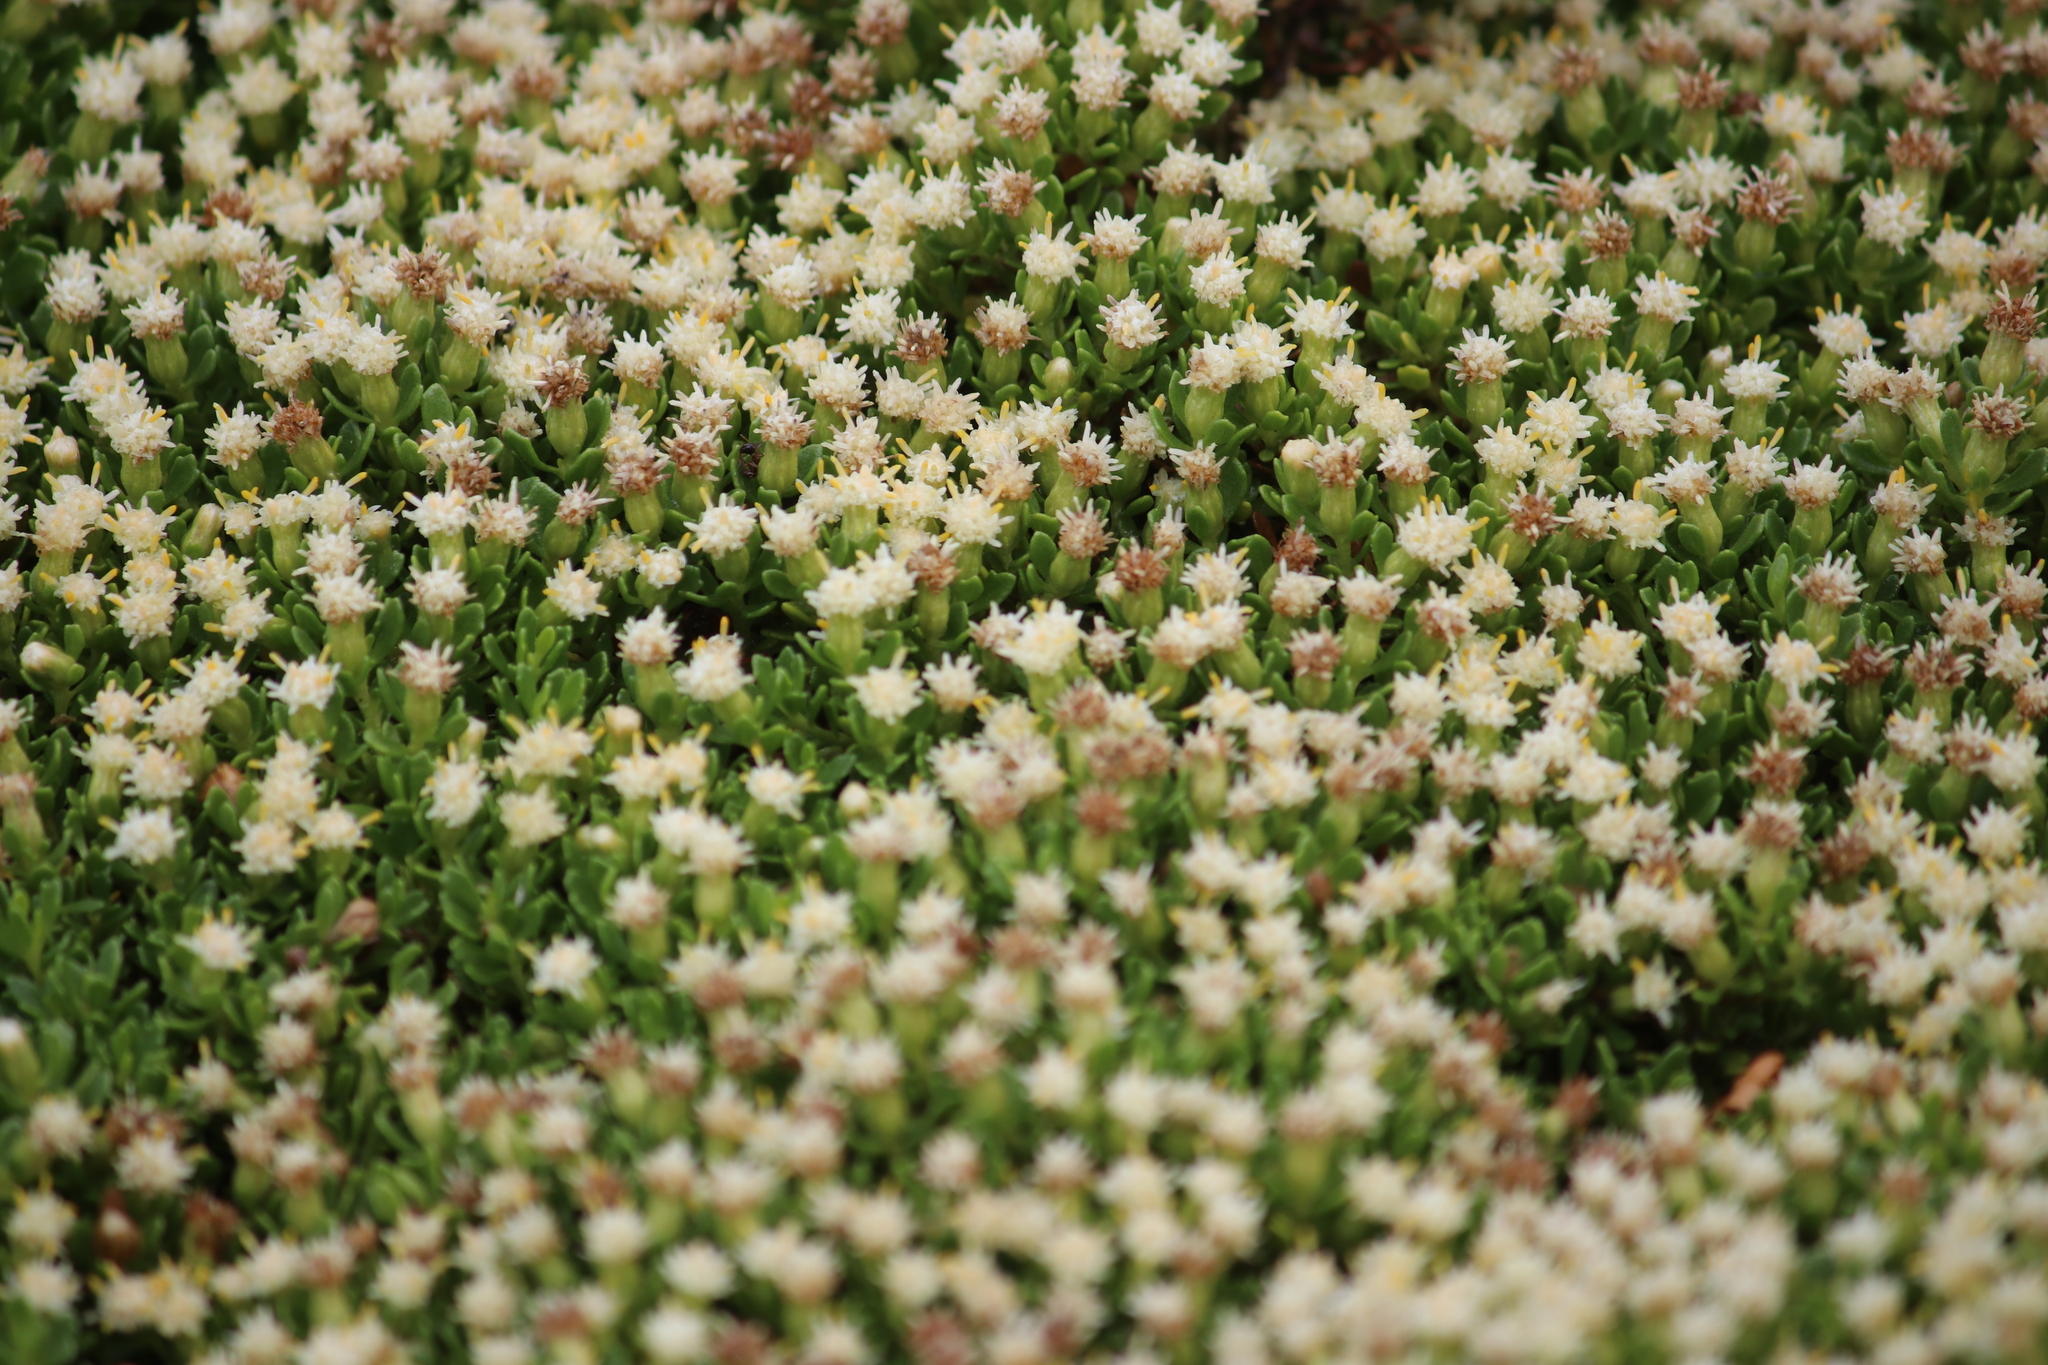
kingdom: Plantae
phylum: Tracheophyta
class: Magnoliopsida
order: Asterales
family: Asteraceae
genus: Baccharis
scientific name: Baccharis magellanica
